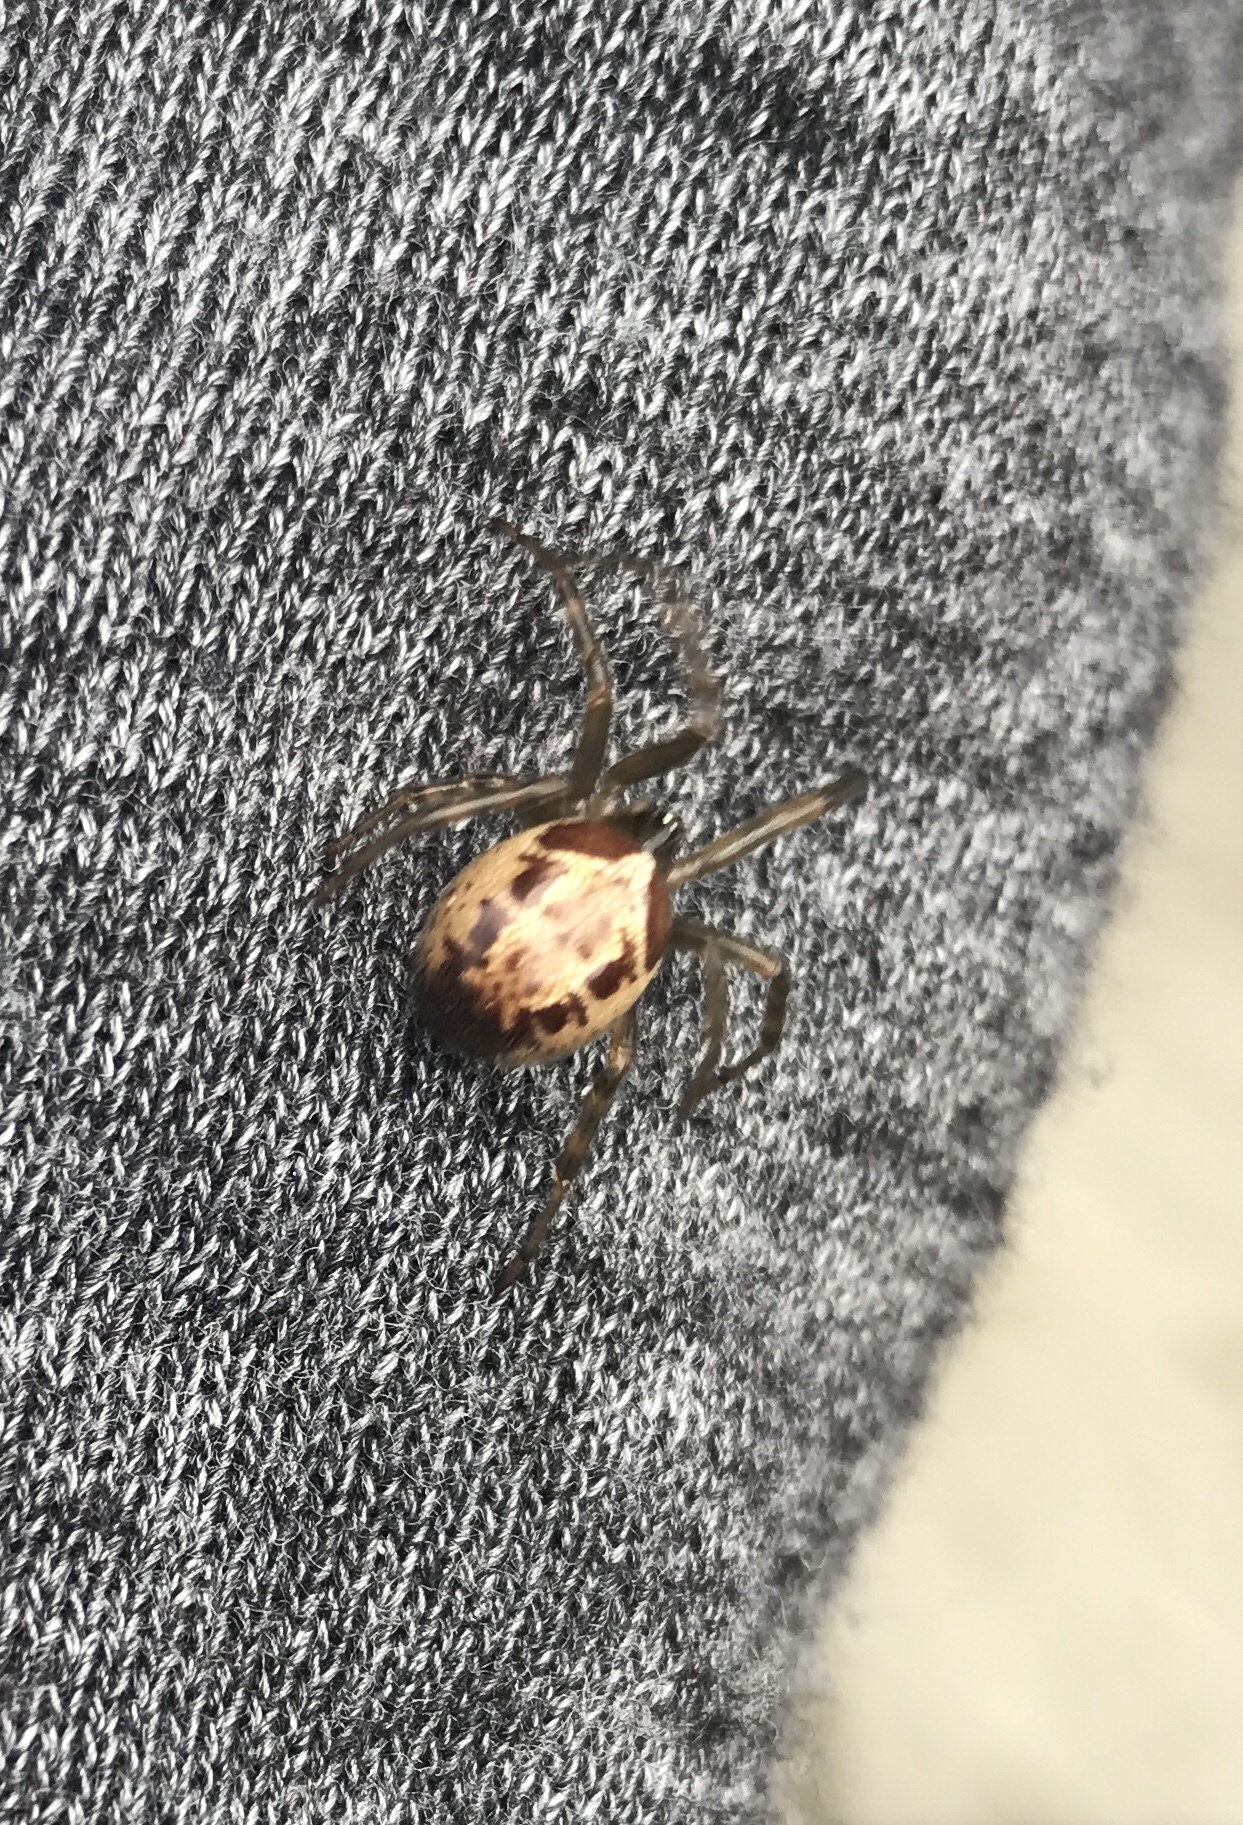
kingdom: Animalia
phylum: Arthropoda
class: Arachnida
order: Araneae
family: Theridiidae
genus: Steatoda
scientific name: Steatoda nobilis
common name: Cobweb weaver
